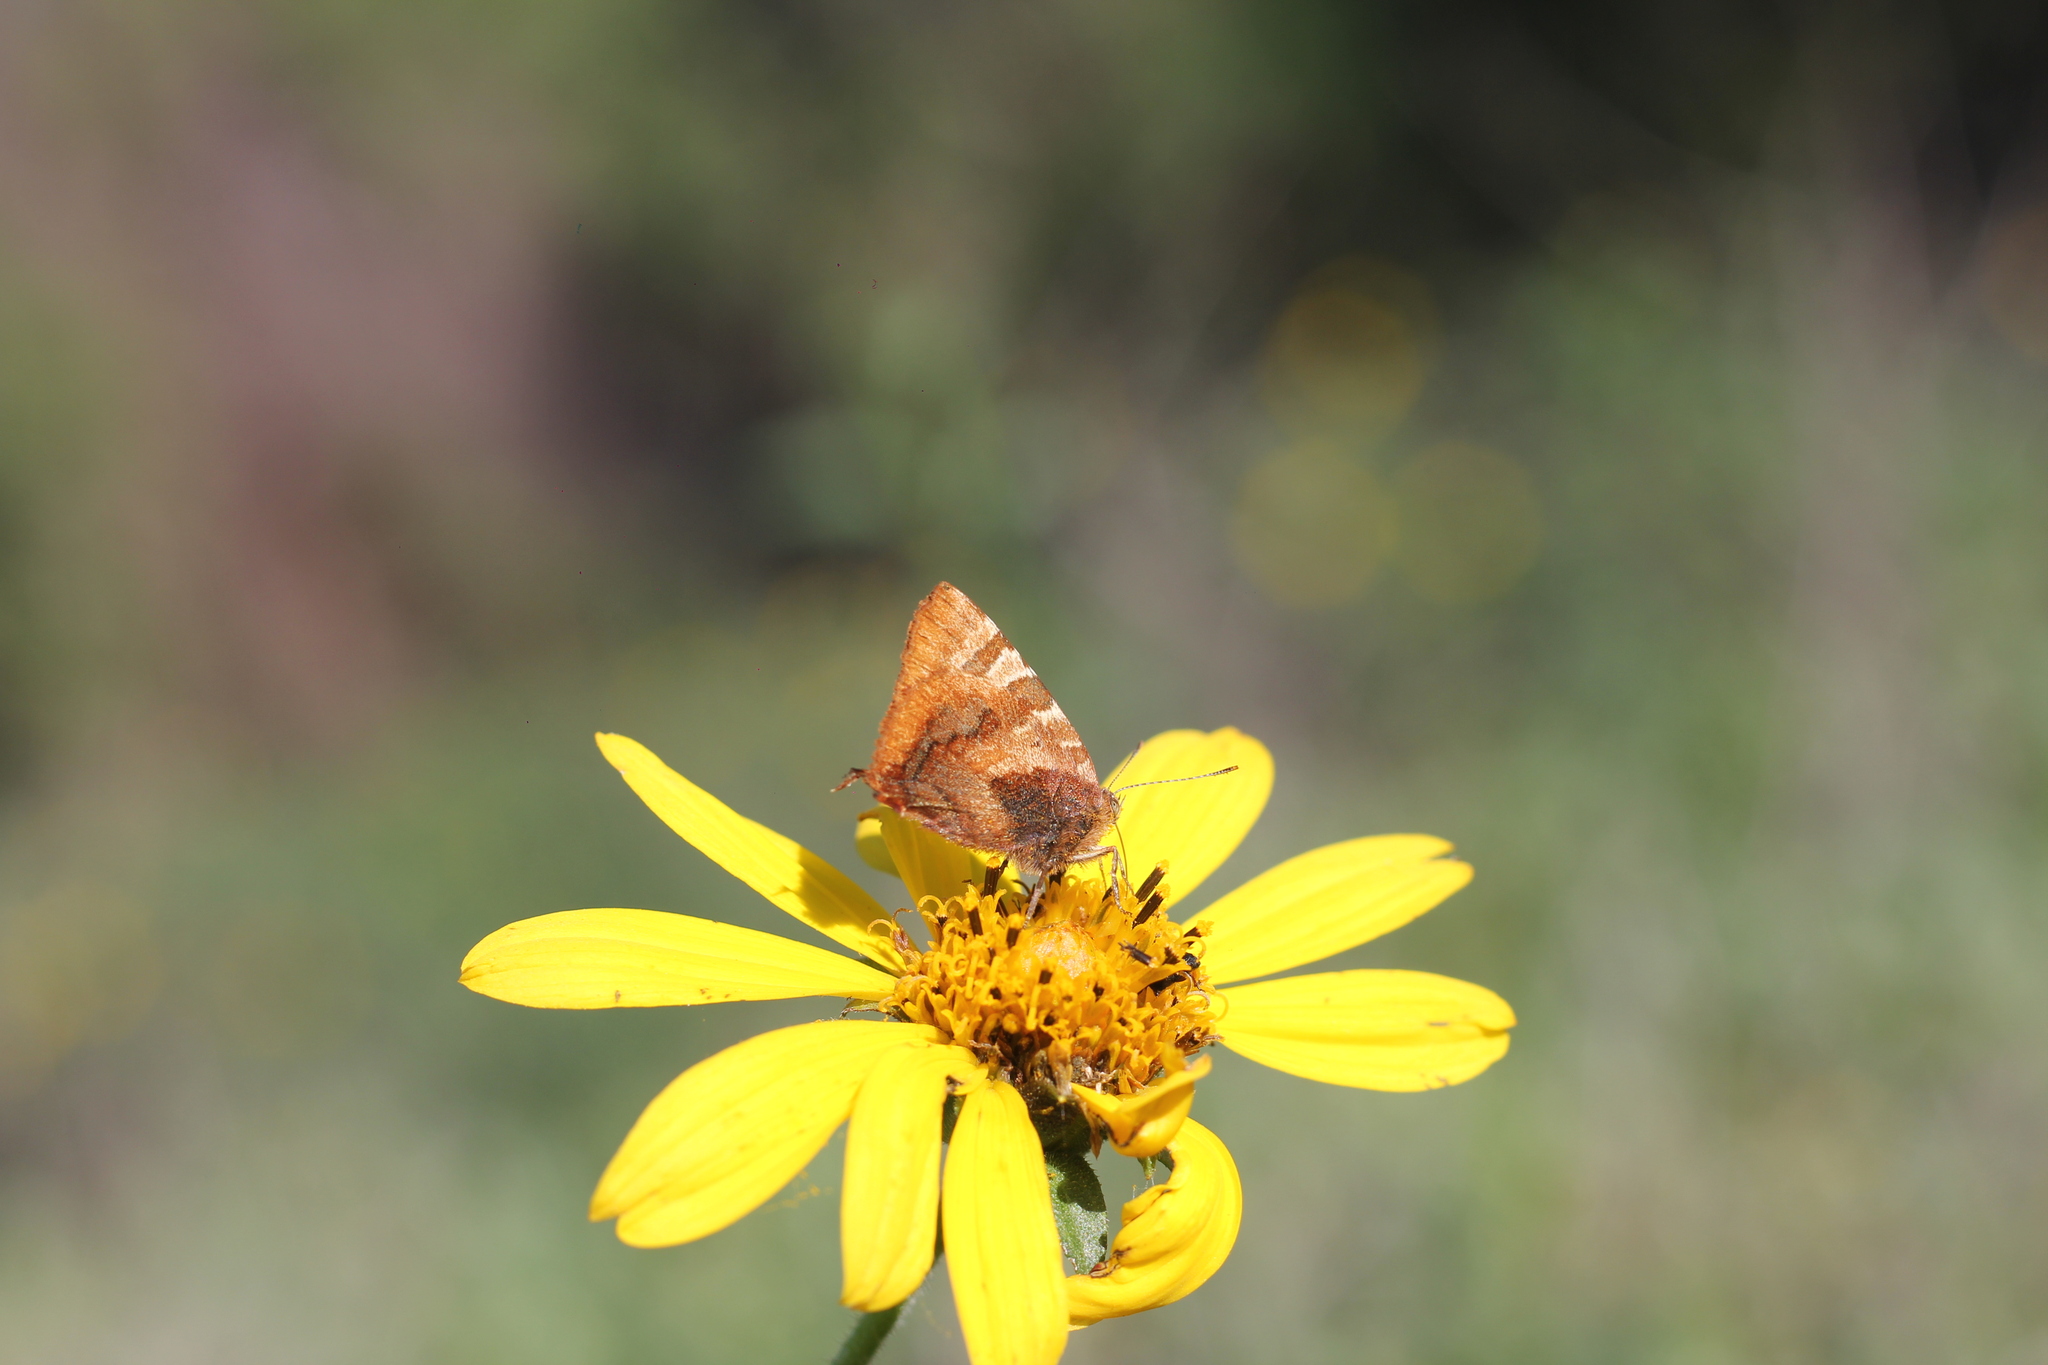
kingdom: Animalia
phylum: Arthropoda
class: Insecta
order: Lepidoptera
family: Lycaenidae
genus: Arawacus
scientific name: Arawacus ellida
